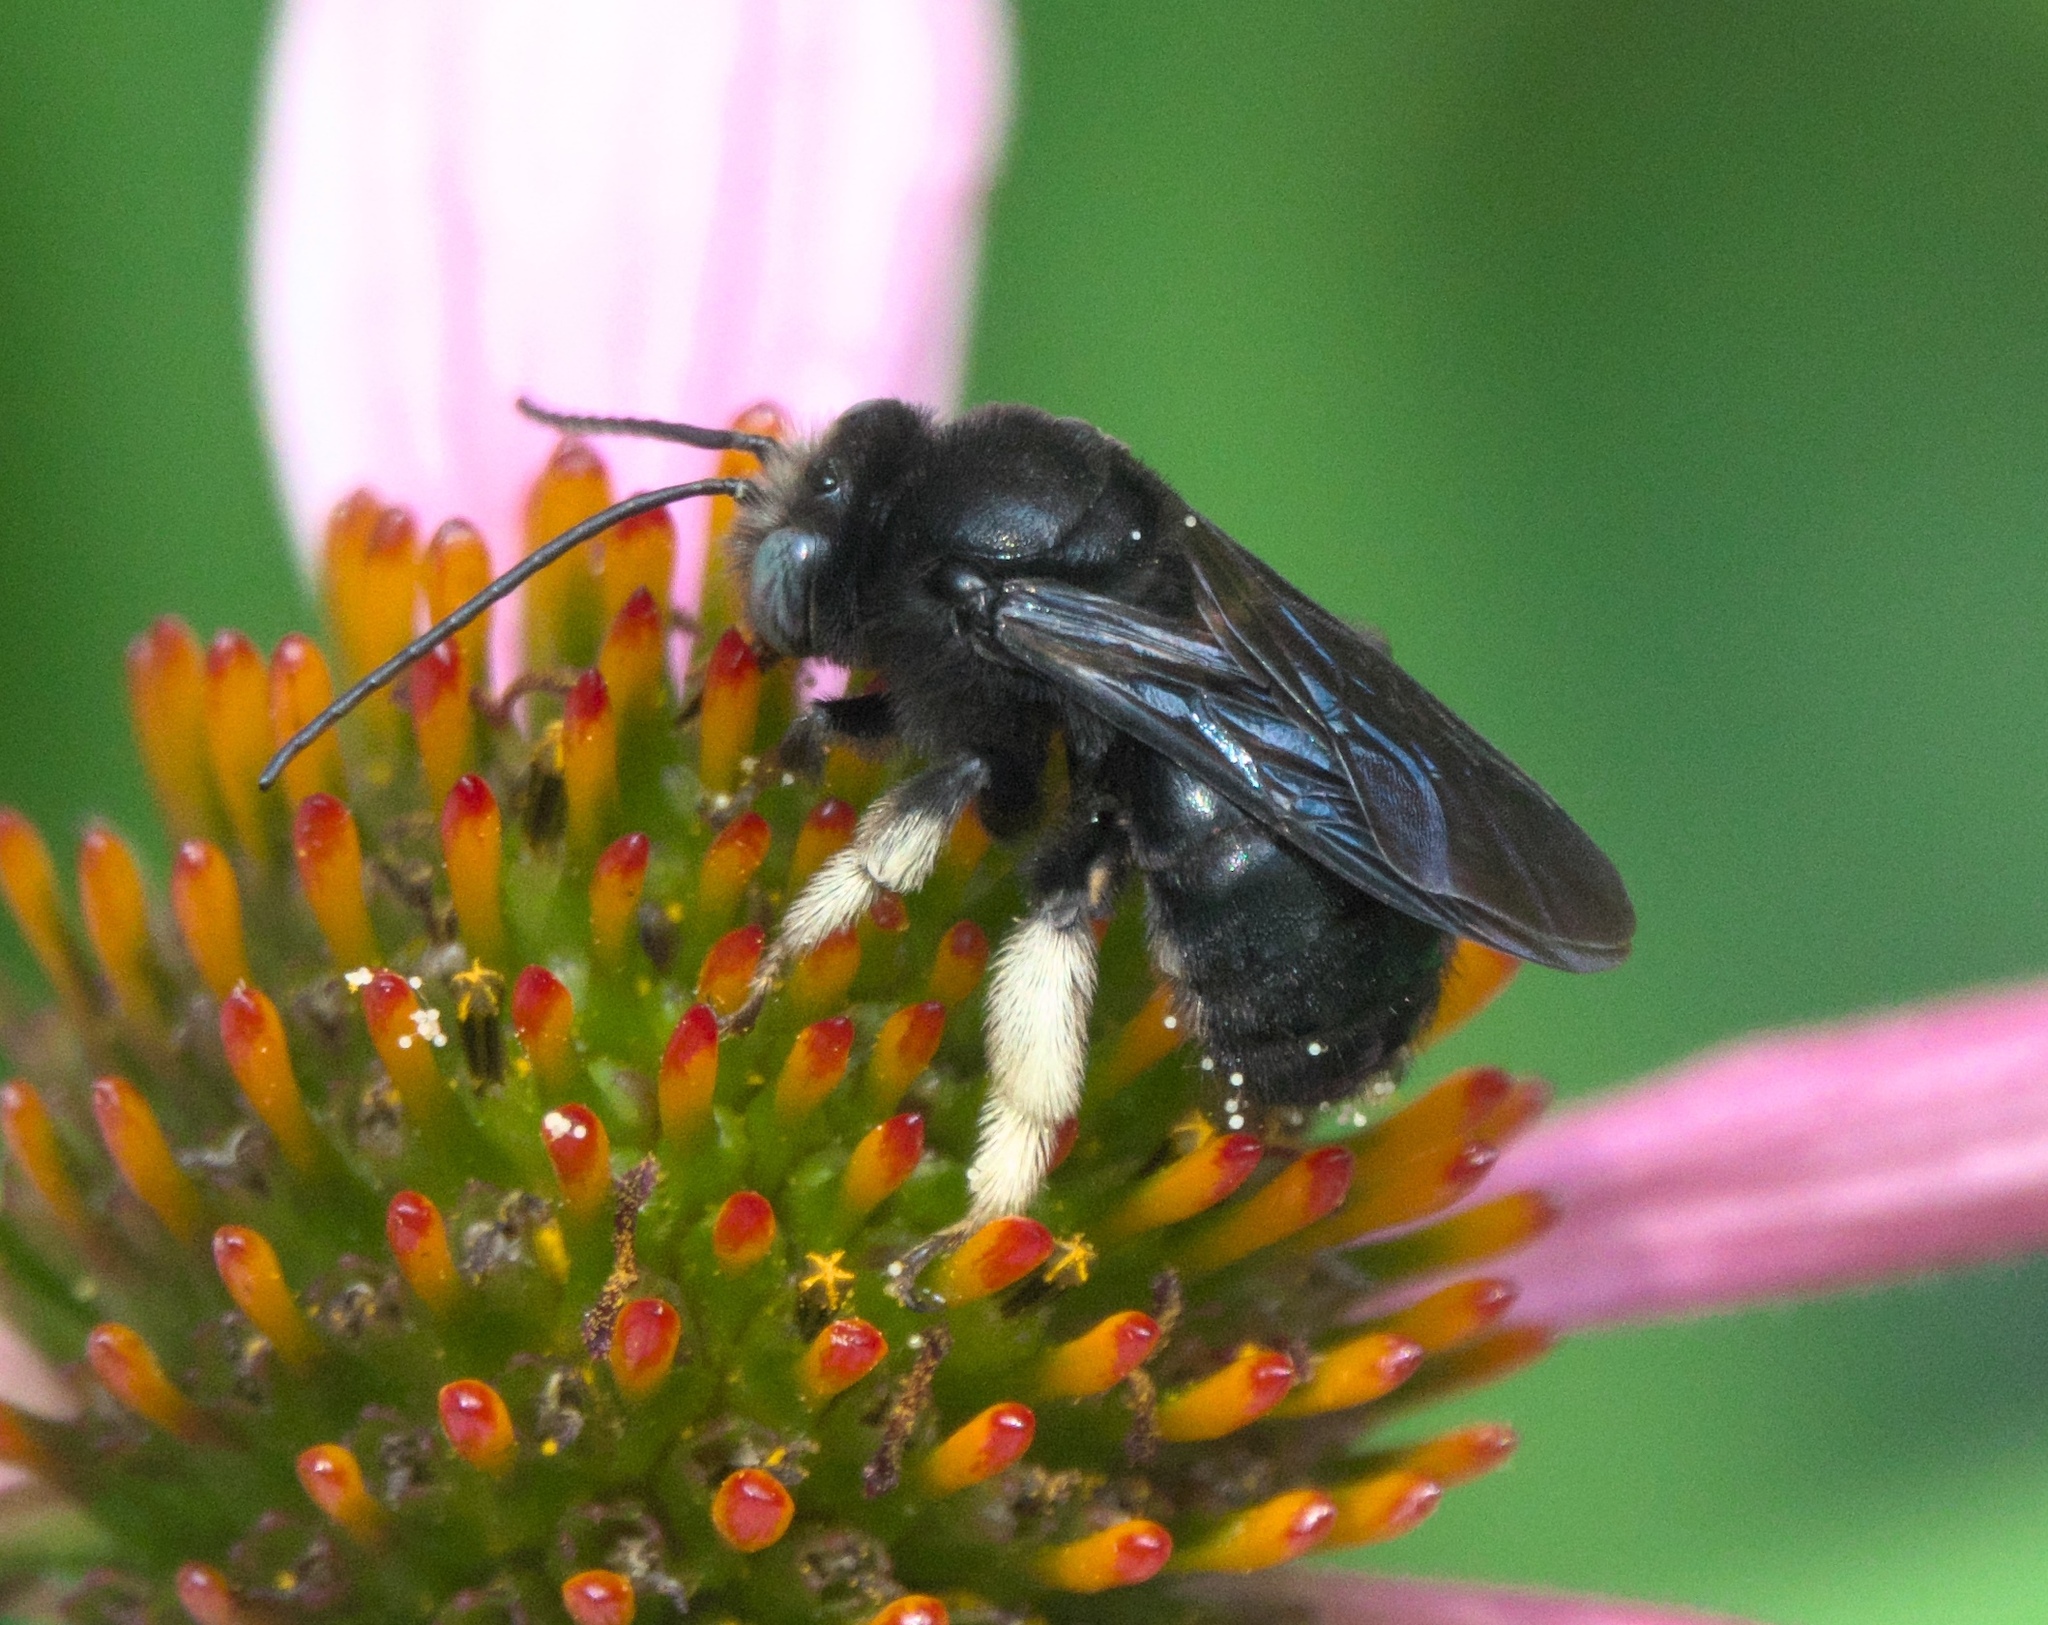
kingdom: Animalia
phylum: Arthropoda
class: Insecta
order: Hymenoptera
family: Apidae
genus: Melissodes
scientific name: Melissodes bimaculatus
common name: Two-spotted long-horned bee
